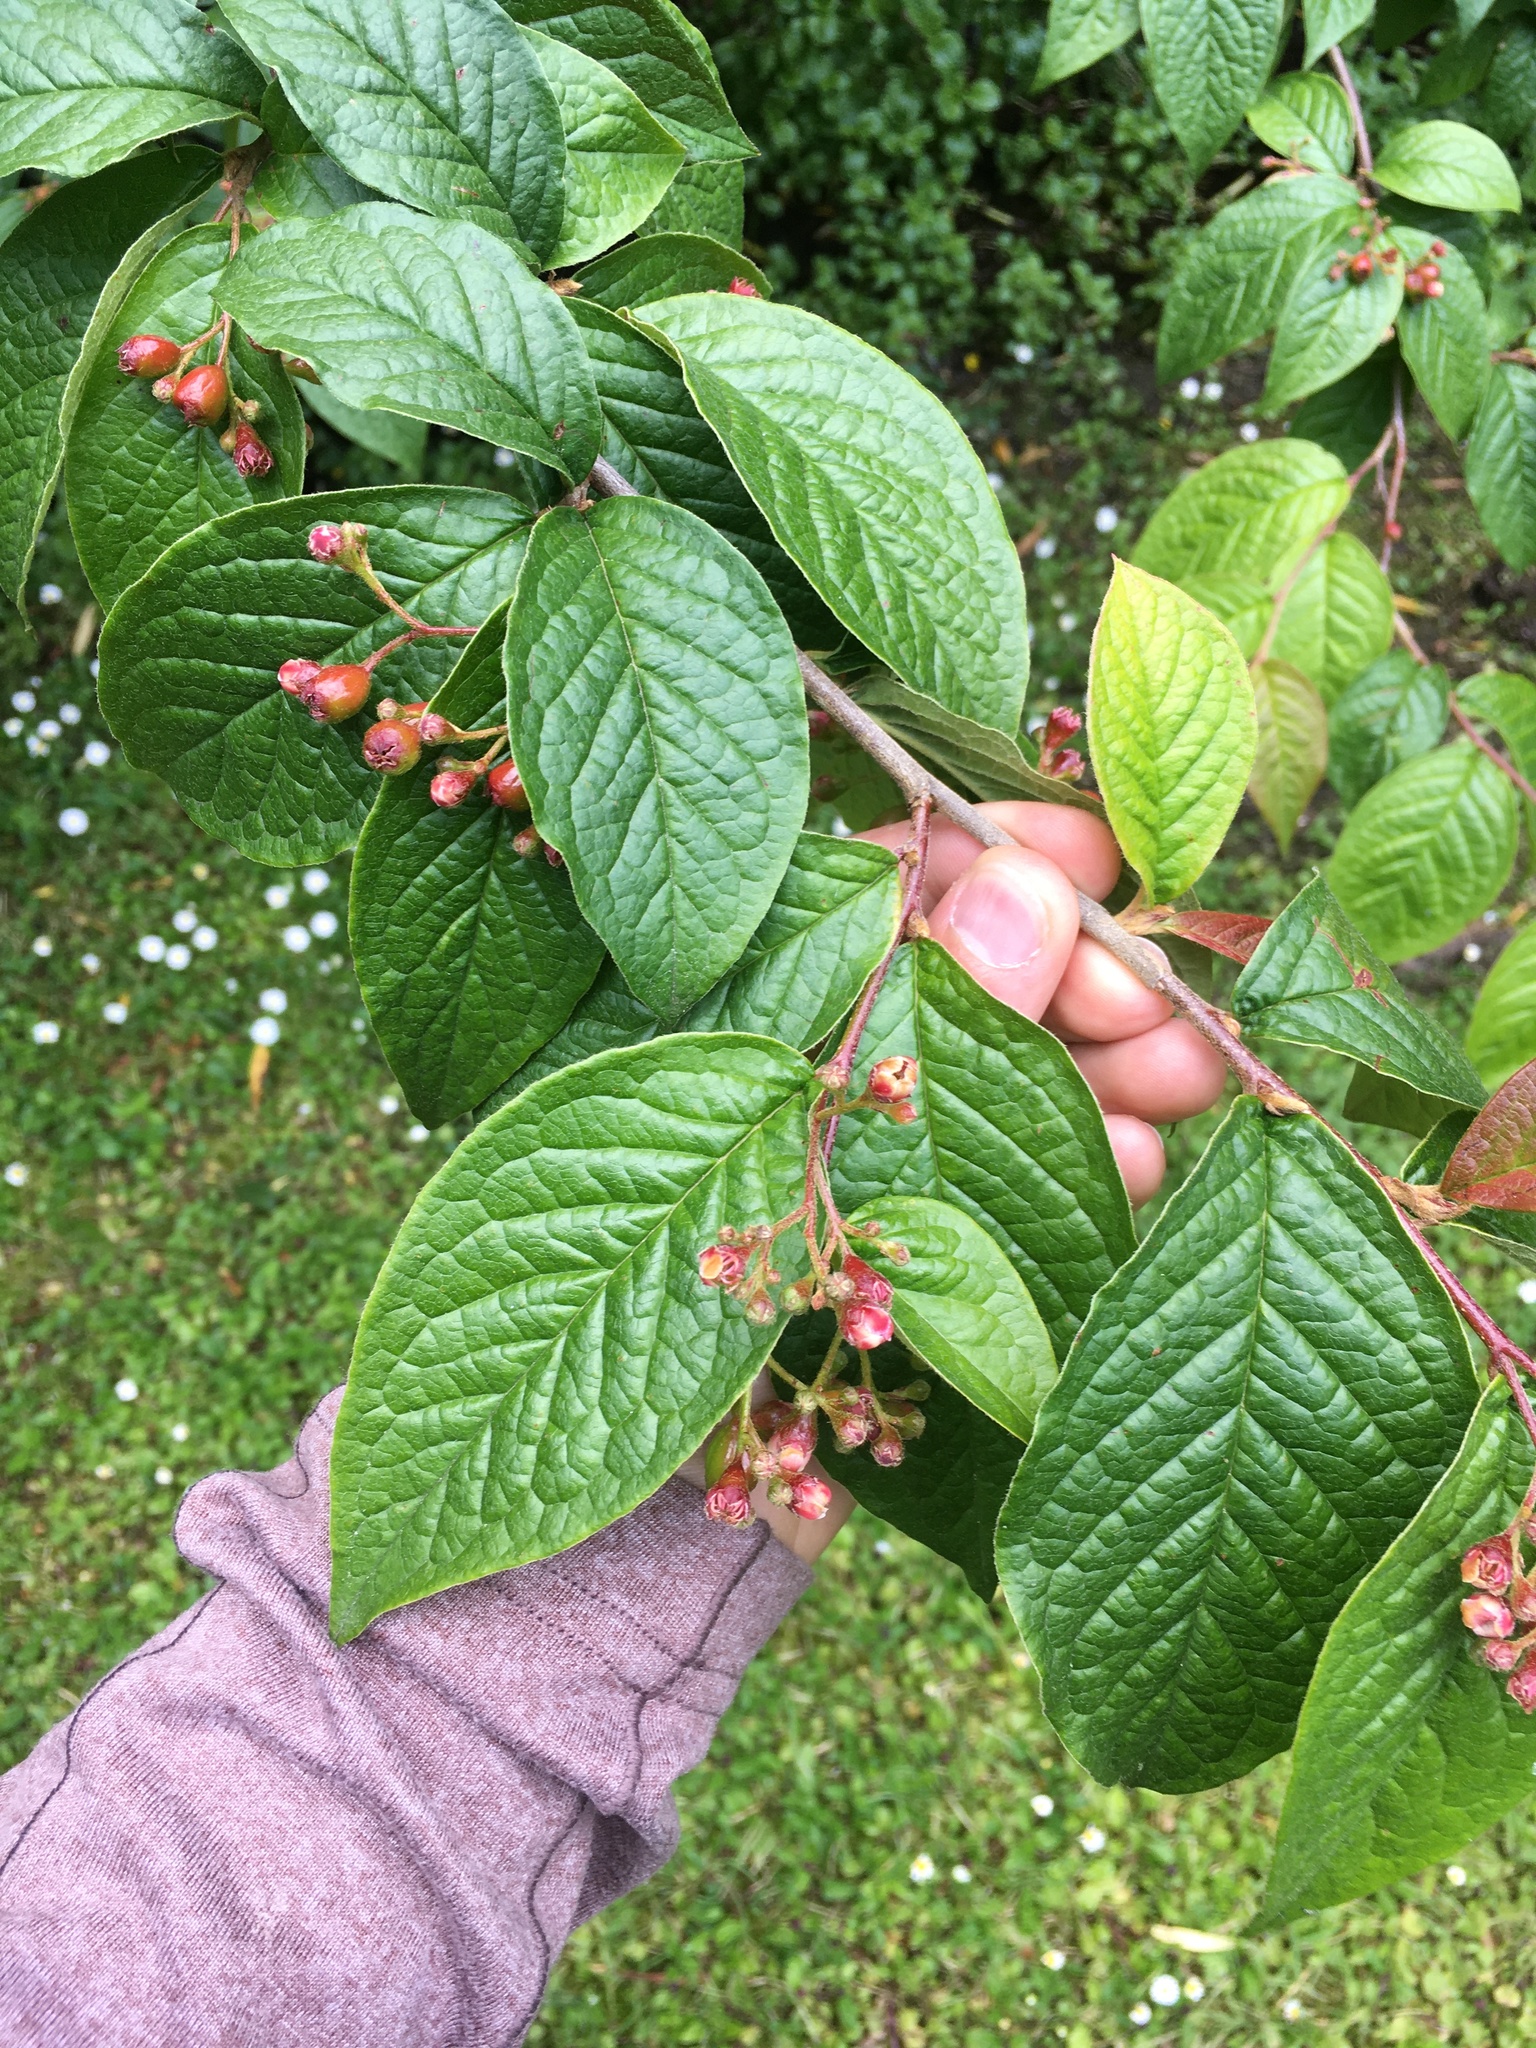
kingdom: Plantae
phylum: Tracheophyta
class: Magnoliopsida
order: Rosales
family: Rosaceae
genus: Cotoneaster
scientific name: Cotoneaster bullatus
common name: Hollyberry cotoneaster
